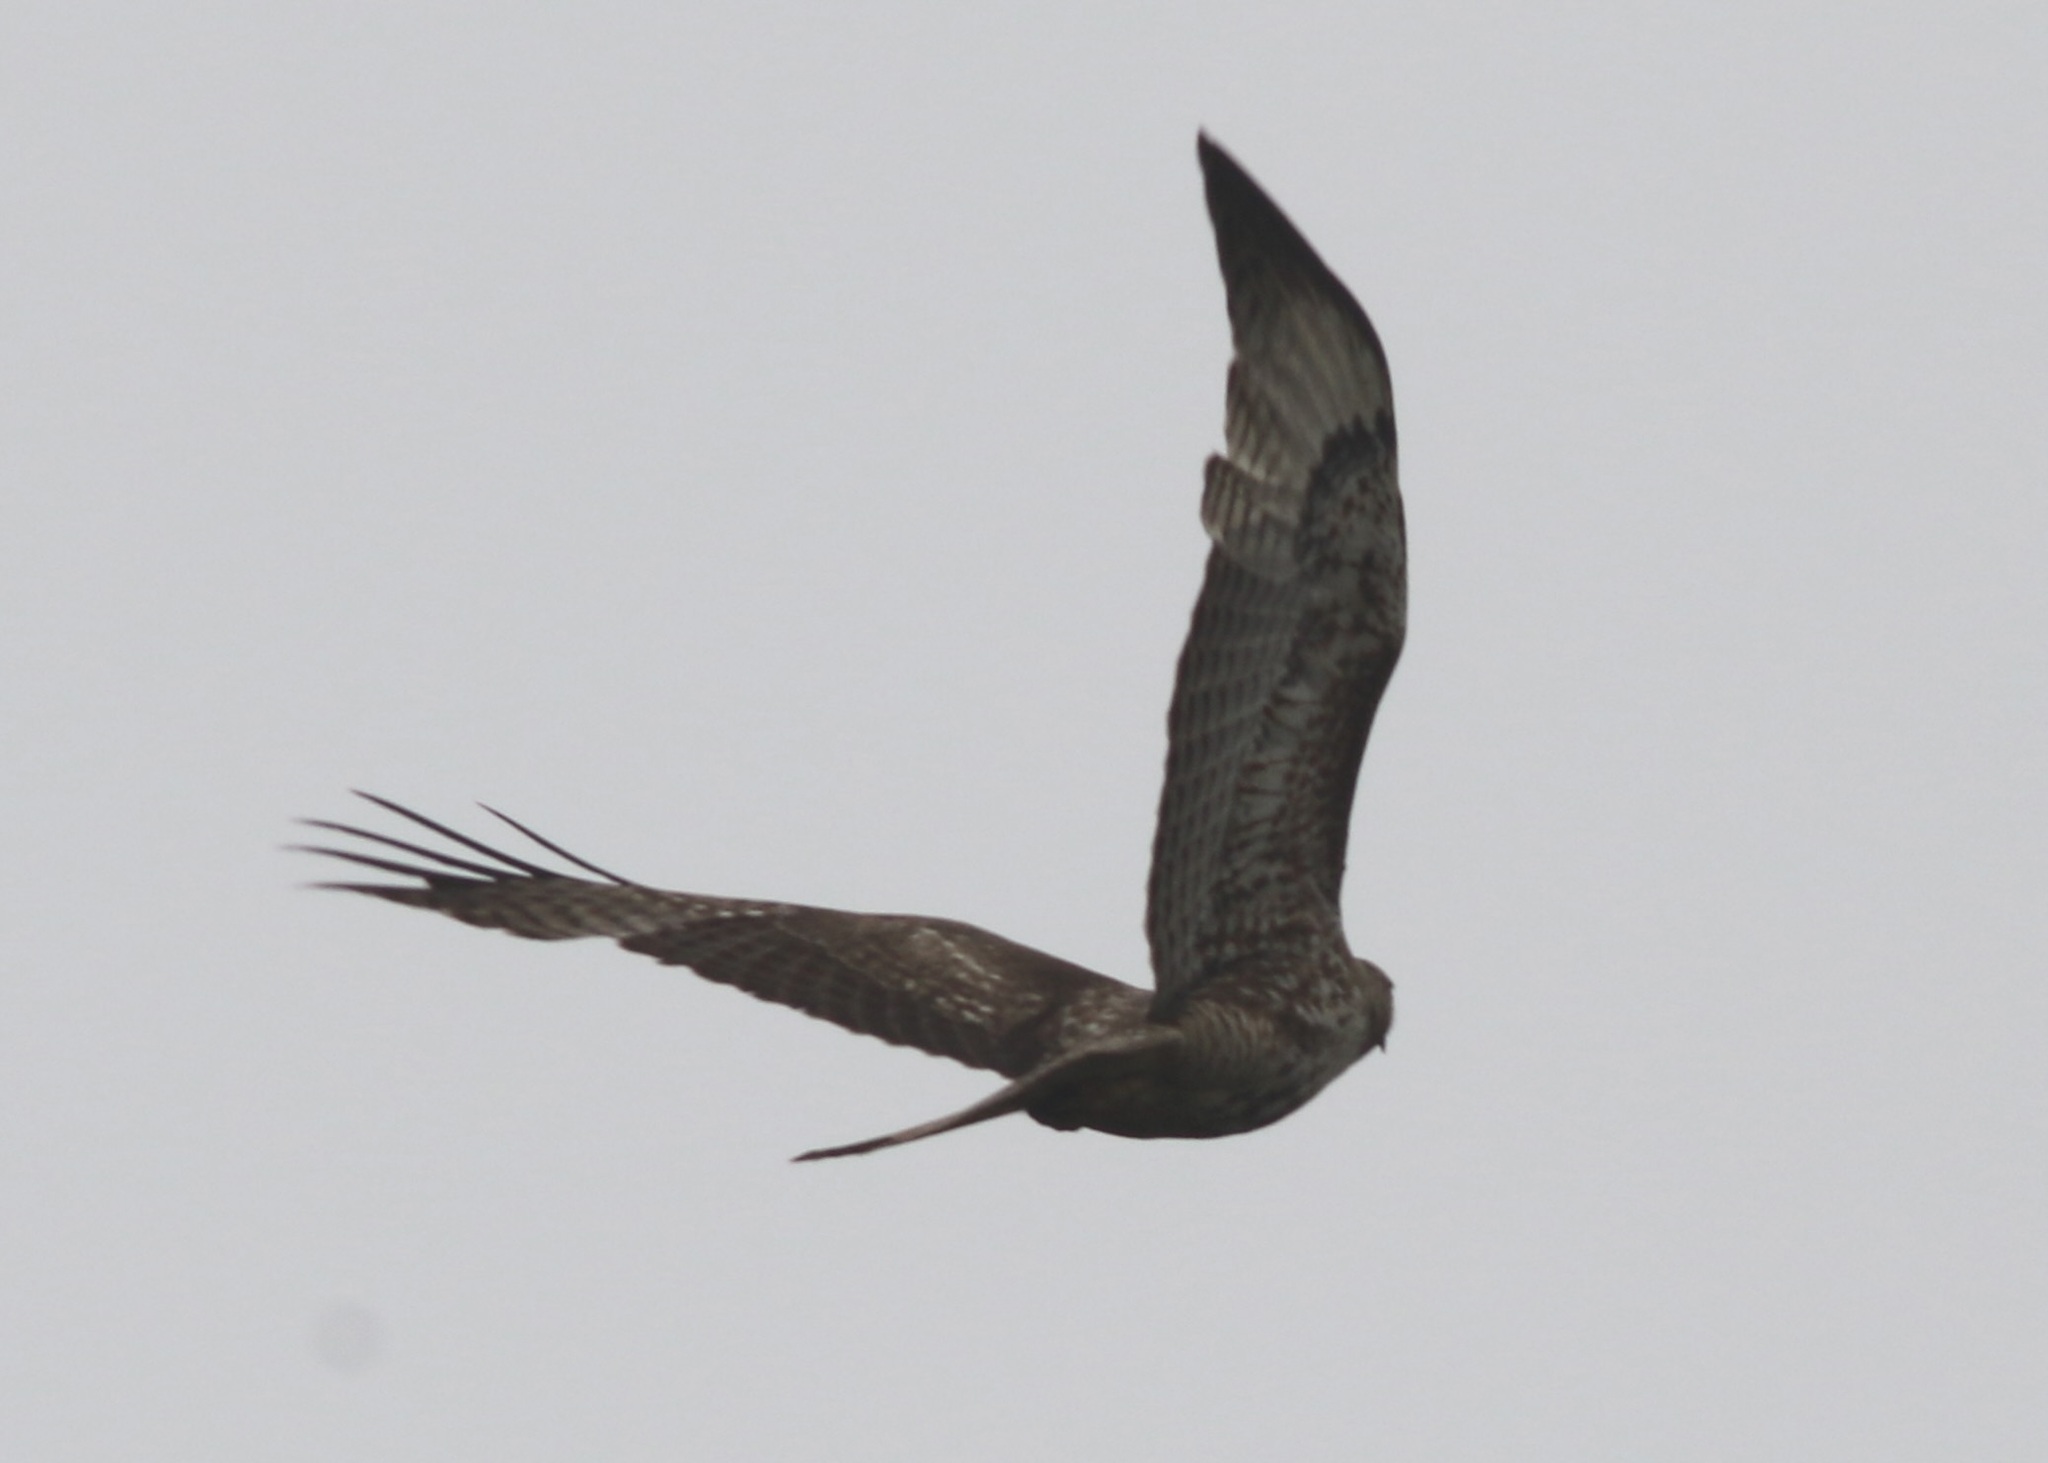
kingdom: Animalia
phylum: Chordata
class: Aves
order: Accipitriformes
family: Accipitridae
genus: Buteo
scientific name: Buteo jamaicensis
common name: Red-tailed hawk
